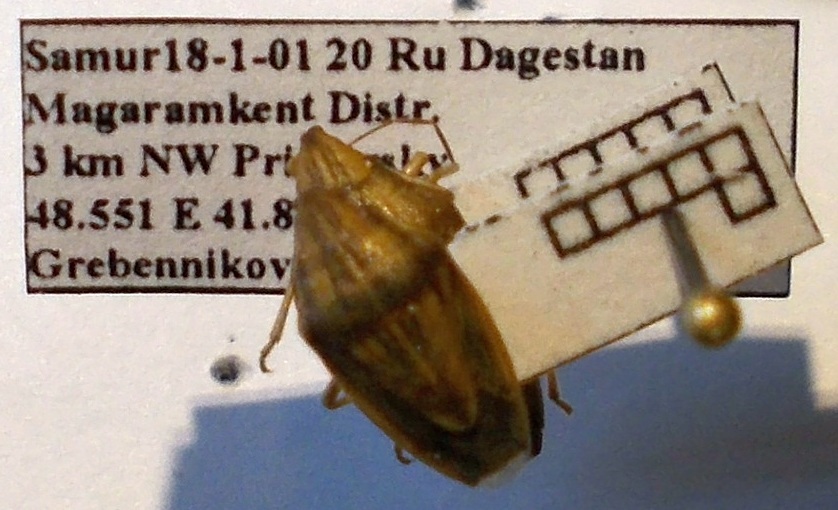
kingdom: Animalia
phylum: Arthropoda
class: Insecta
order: Hemiptera
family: Pentatomidae
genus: Aelia
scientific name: Aelia acuminata
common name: Bishop's mitre
